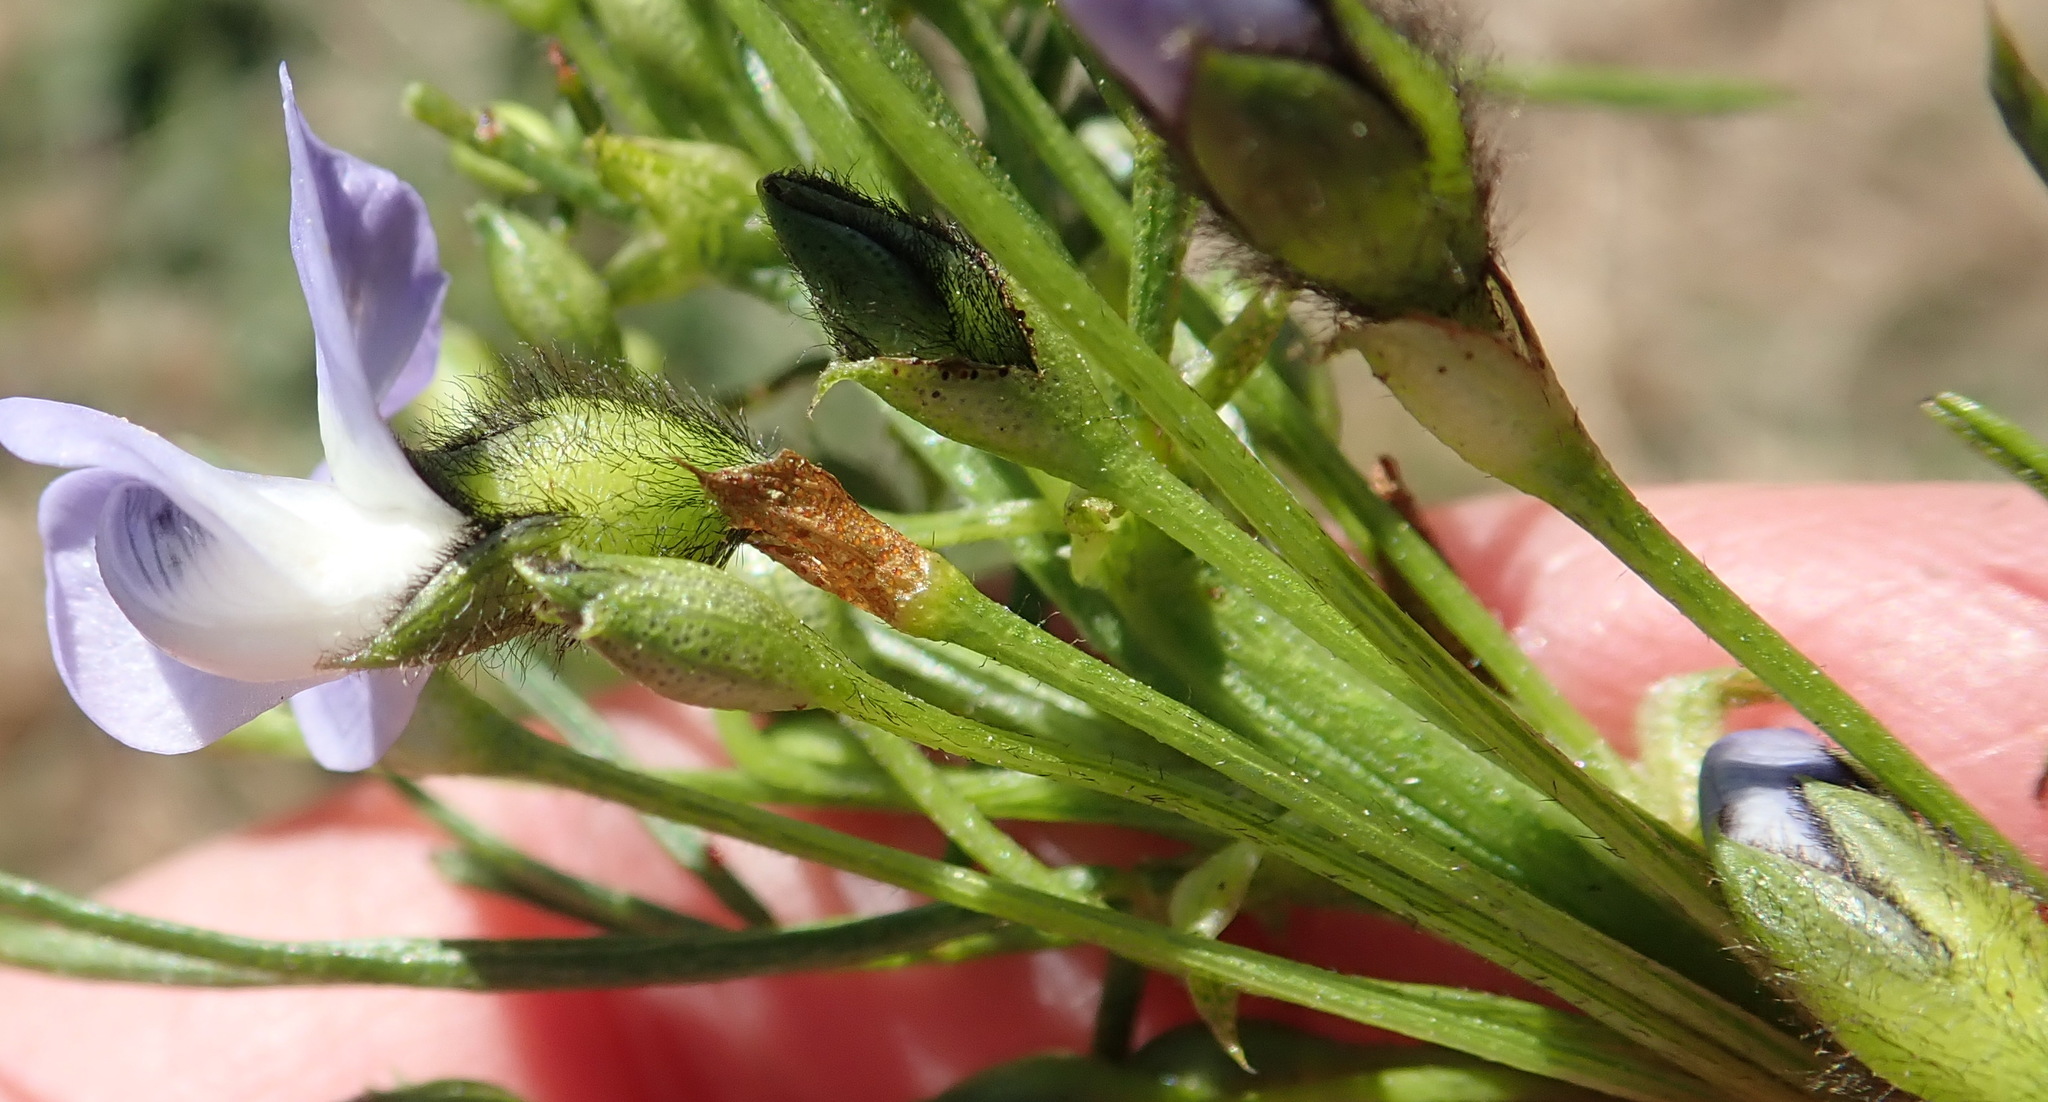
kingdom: Plantae
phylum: Tracheophyta
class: Magnoliopsida
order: Fabales
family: Fabaceae
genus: Psoralea
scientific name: Psoralea arborea
